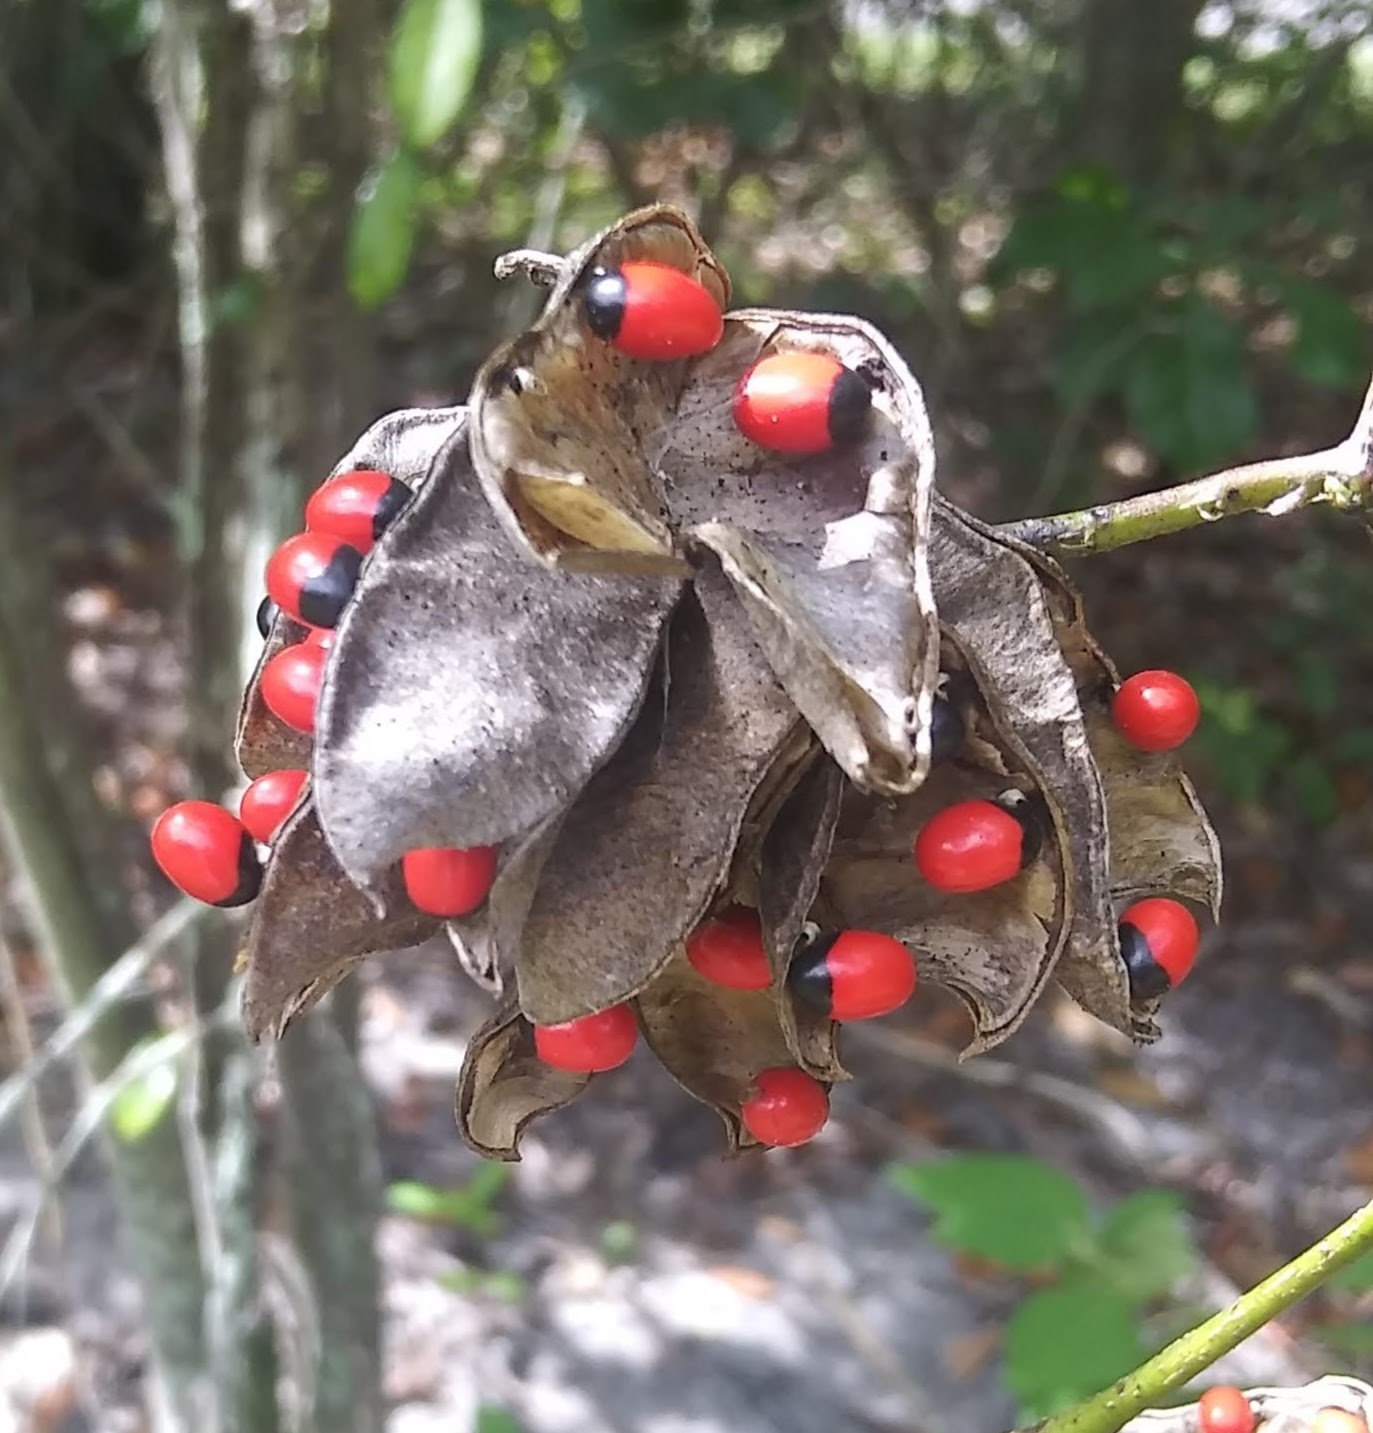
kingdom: Plantae
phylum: Tracheophyta
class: Magnoliopsida
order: Fabales
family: Fabaceae
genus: Abrus
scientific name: Abrus precatorius
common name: Rosarypea
